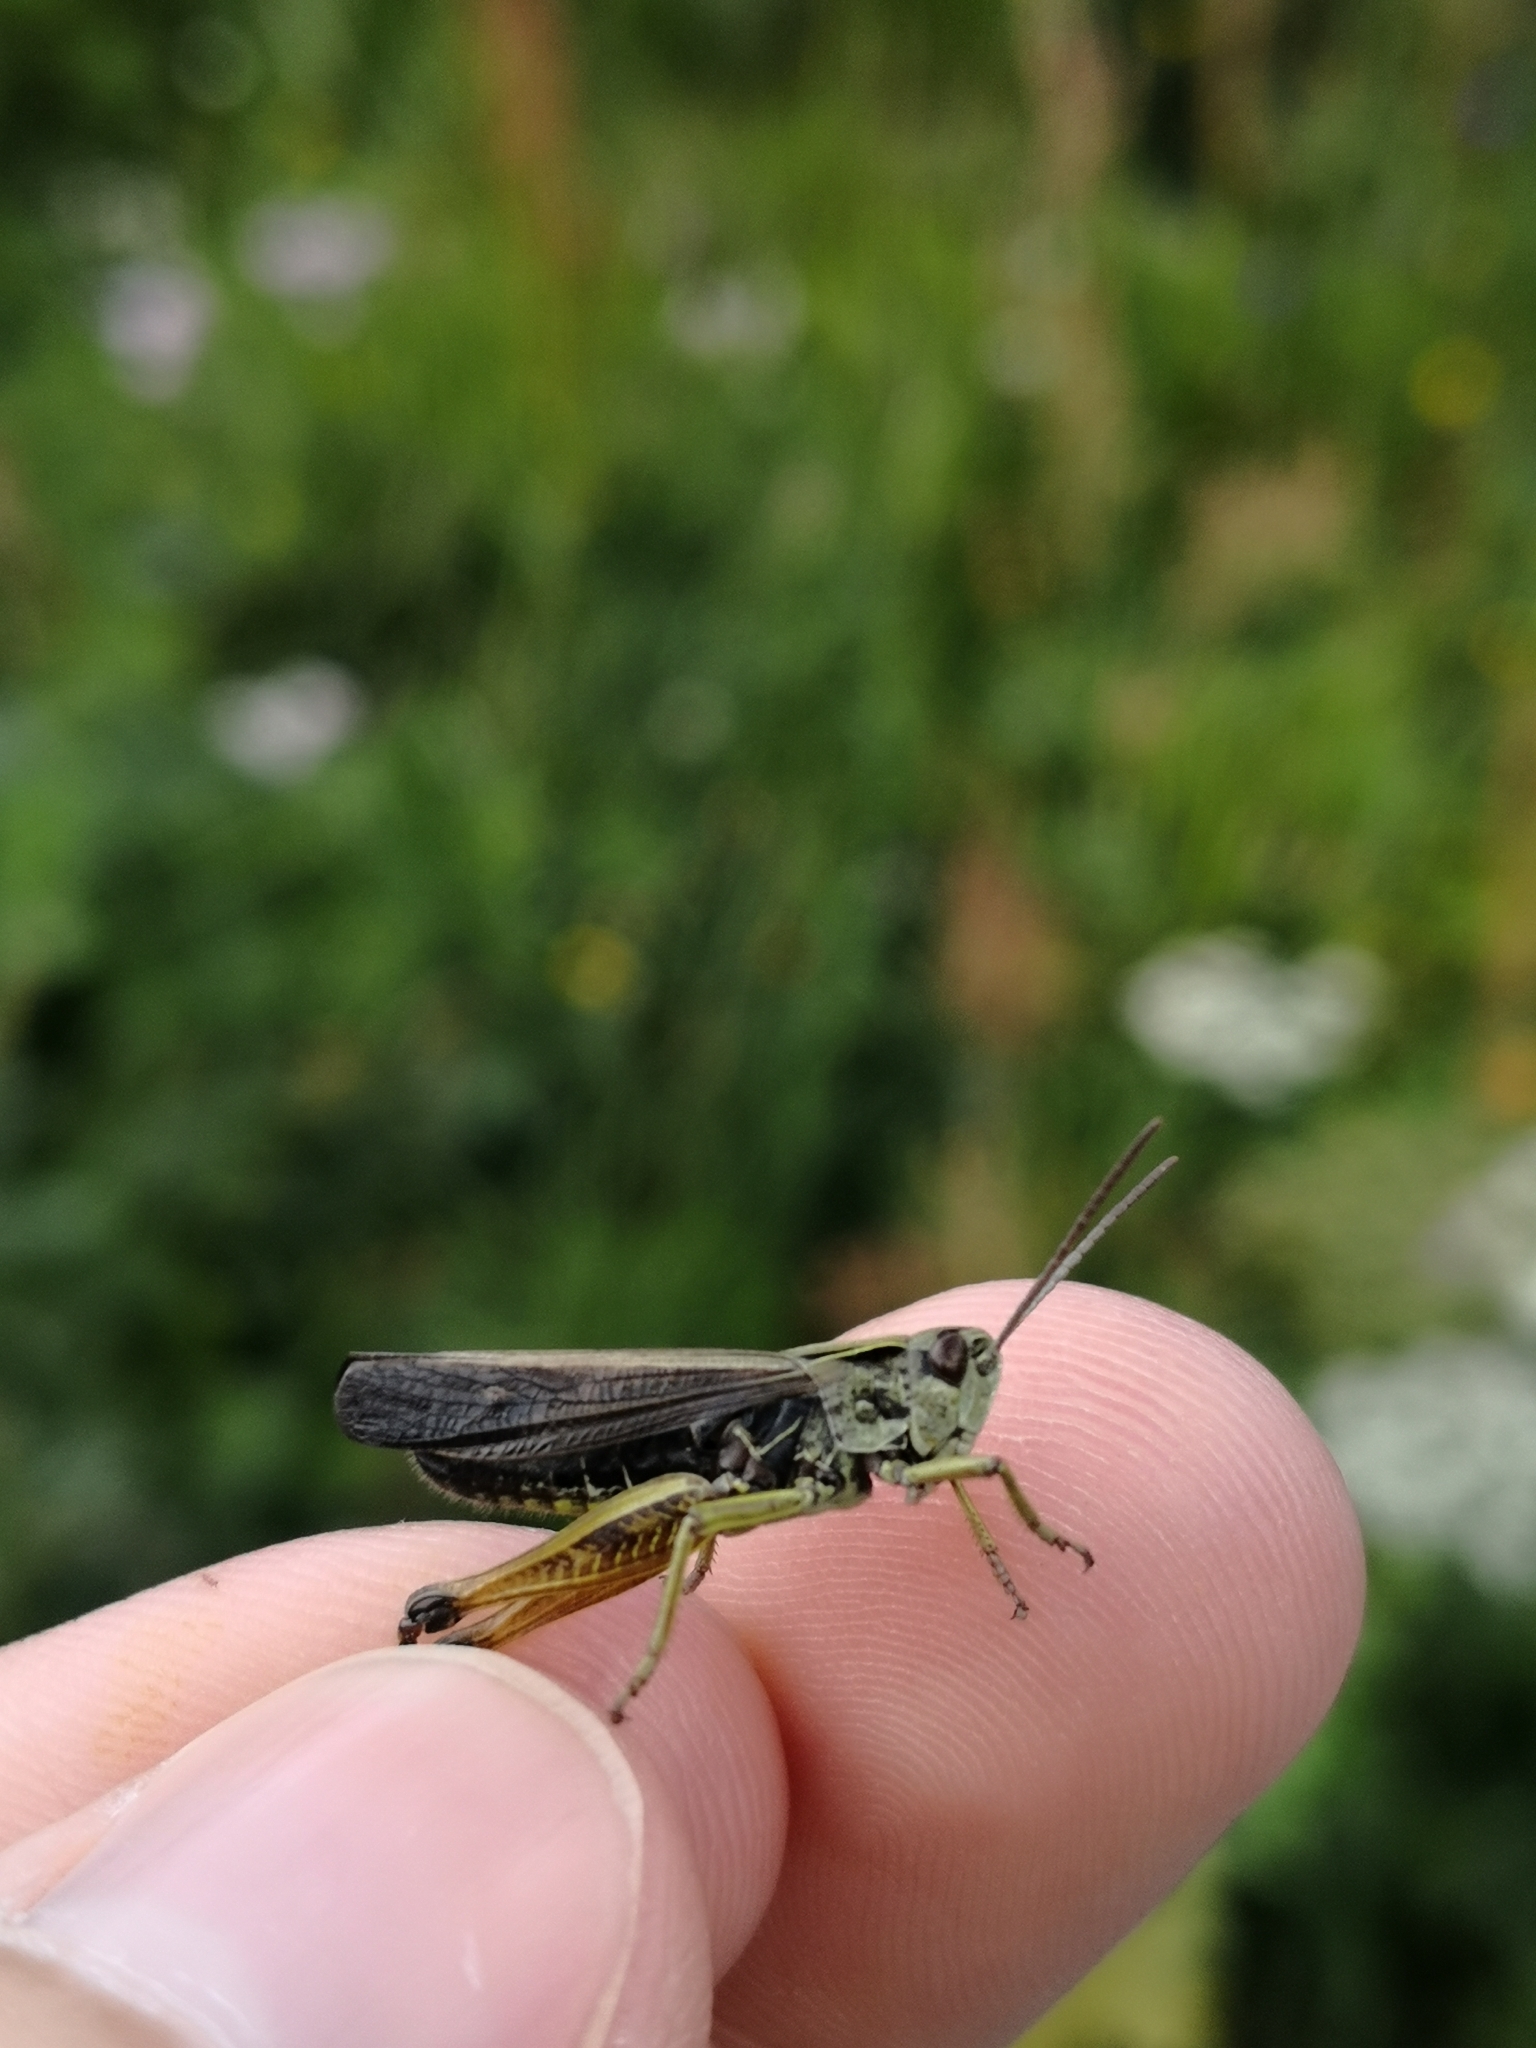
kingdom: Animalia
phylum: Arthropoda
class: Insecta
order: Orthoptera
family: Acrididae
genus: Omocestus
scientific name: Omocestus viridulus
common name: Common green grasshopper
